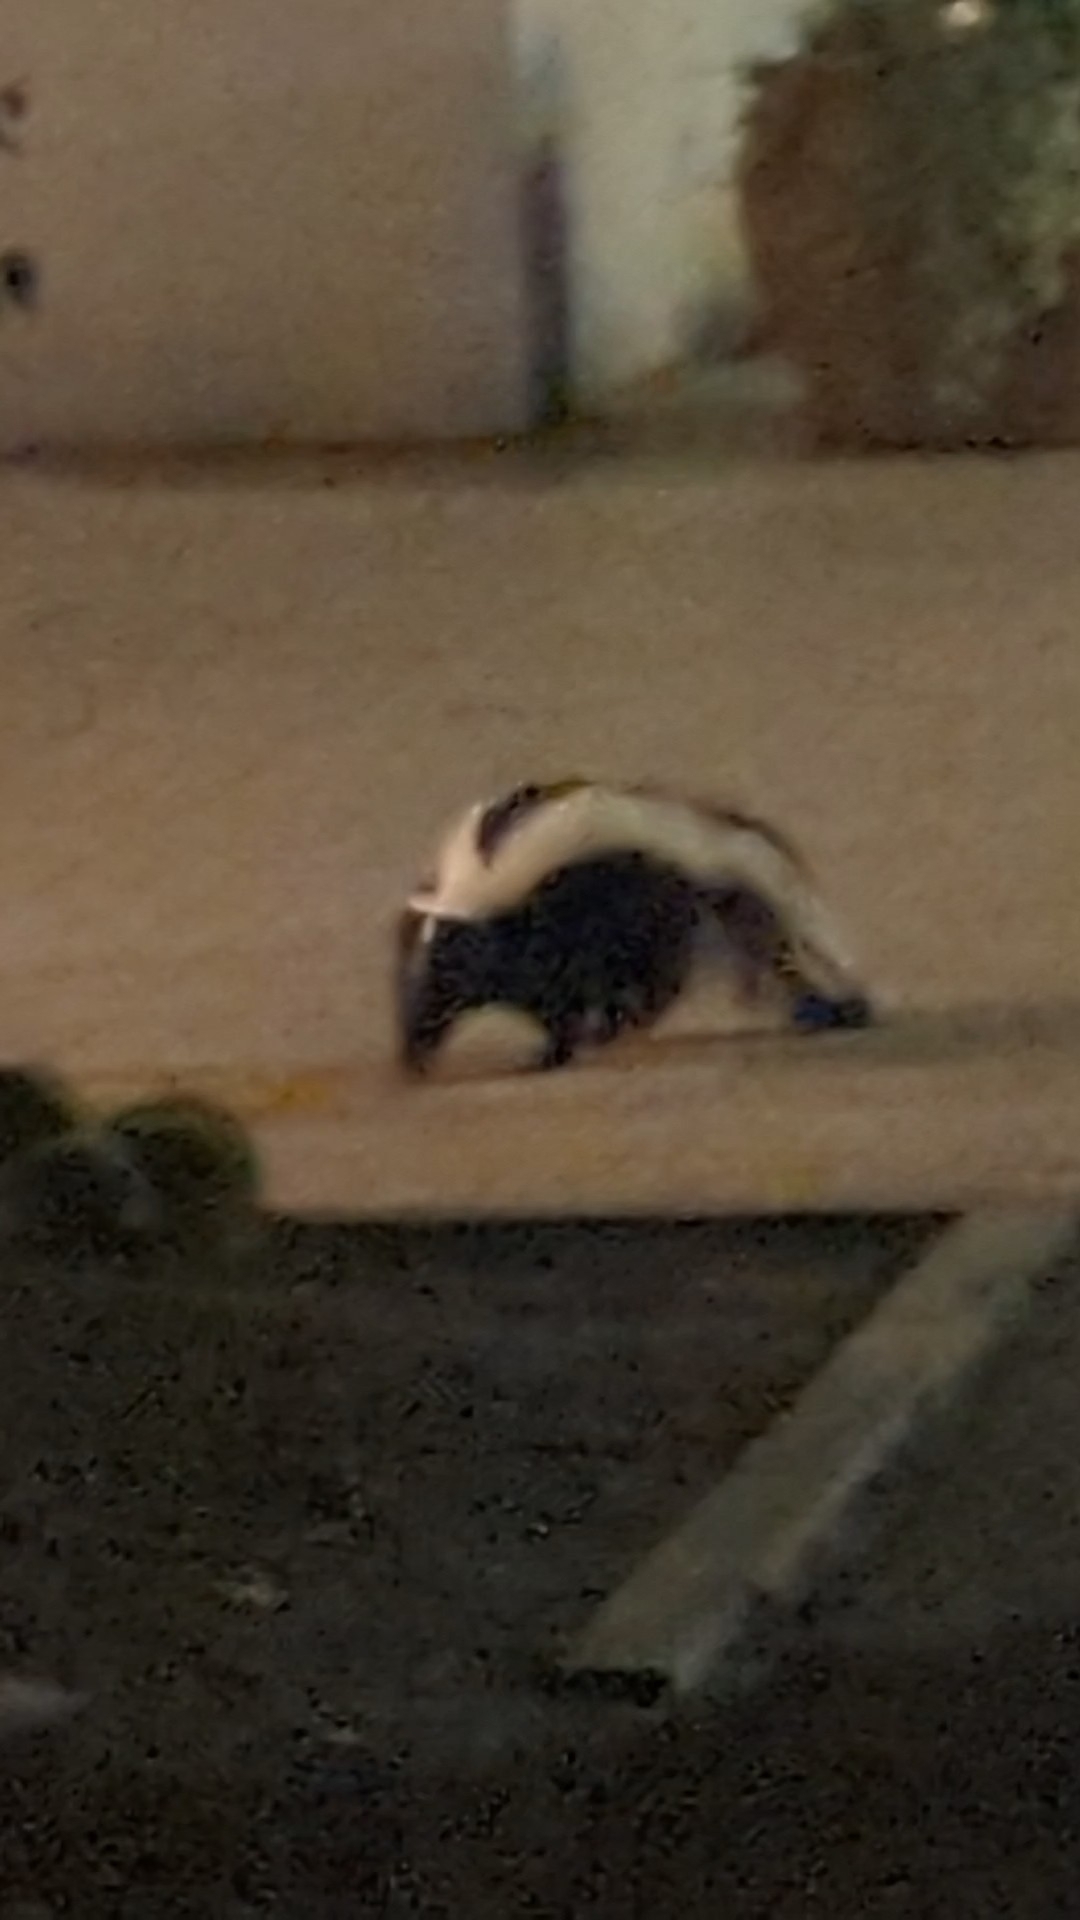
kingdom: Animalia
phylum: Chordata
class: Mammalia
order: Carnivora
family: Mephitidae
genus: Mephitis
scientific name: Mephitis mephitis
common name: Striped skunk
